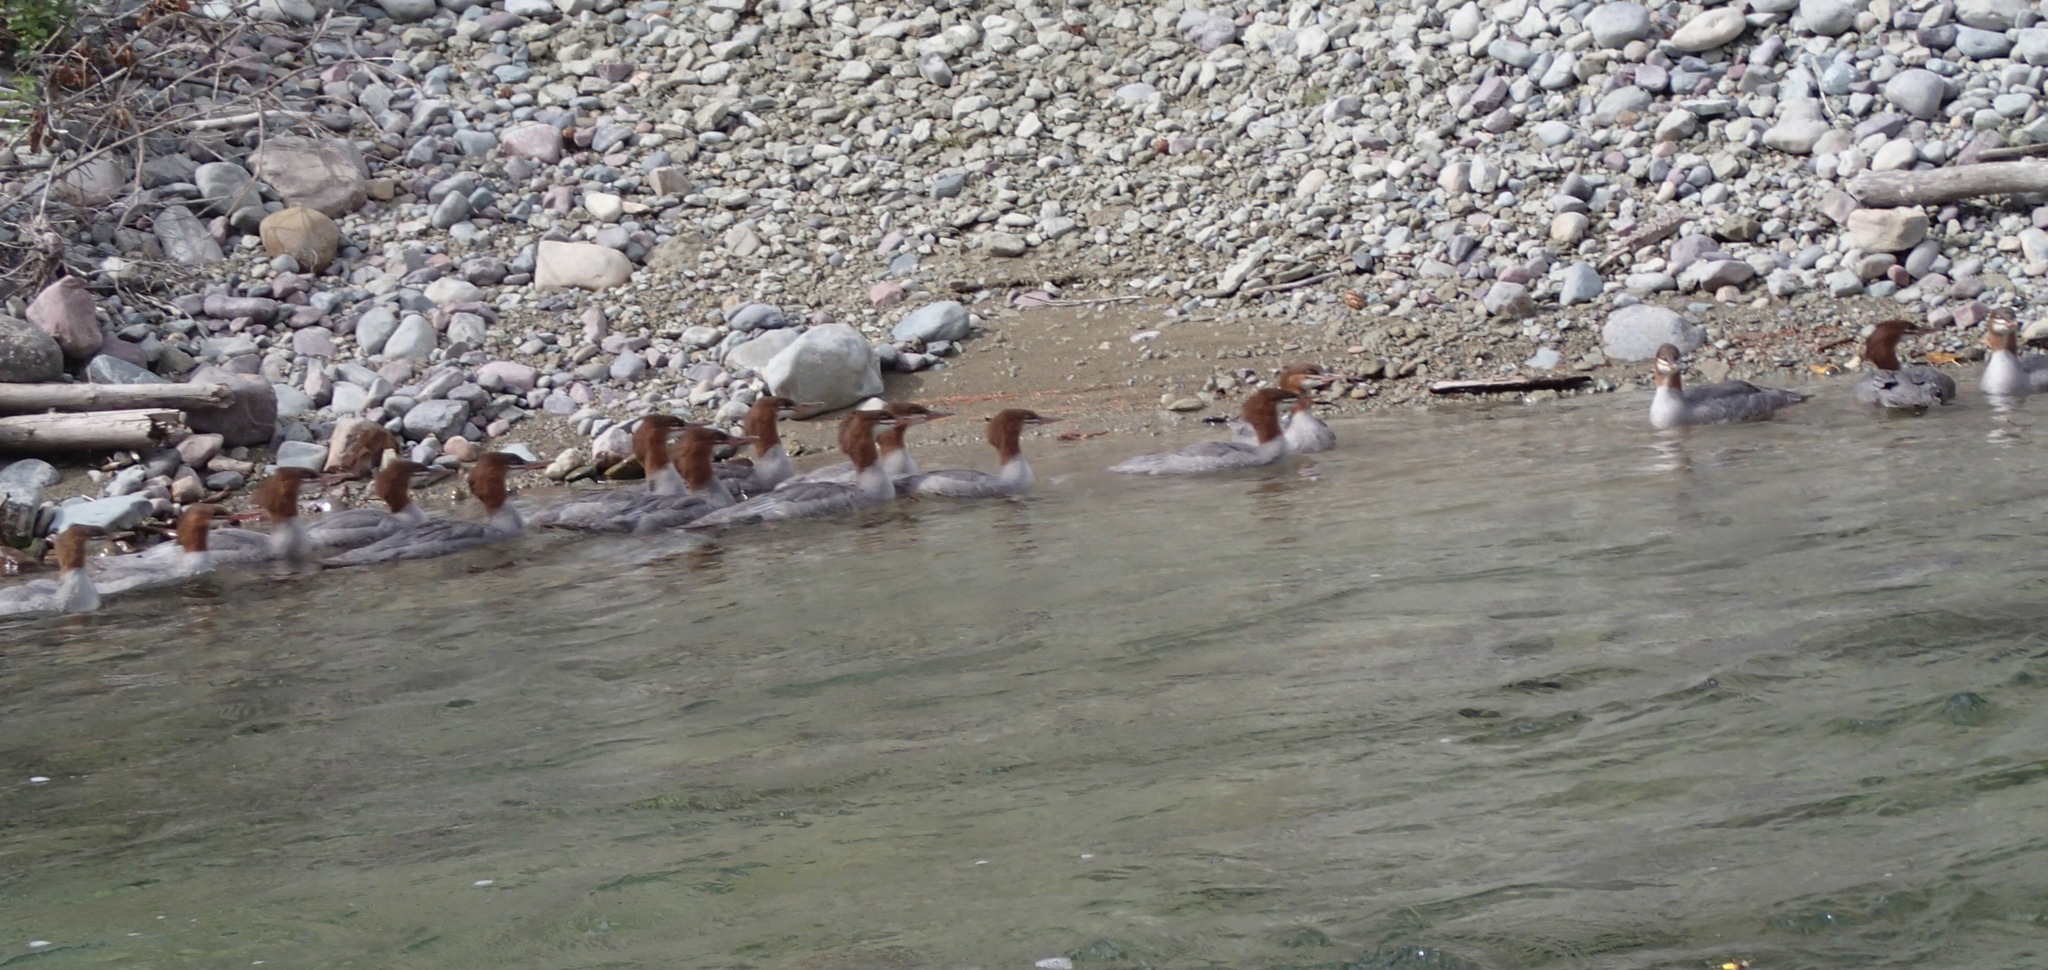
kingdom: Animalia
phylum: Chordata
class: Aves
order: Anseriformes
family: Anatidae
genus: Mergus
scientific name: Mergus merganser
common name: Common merganser
